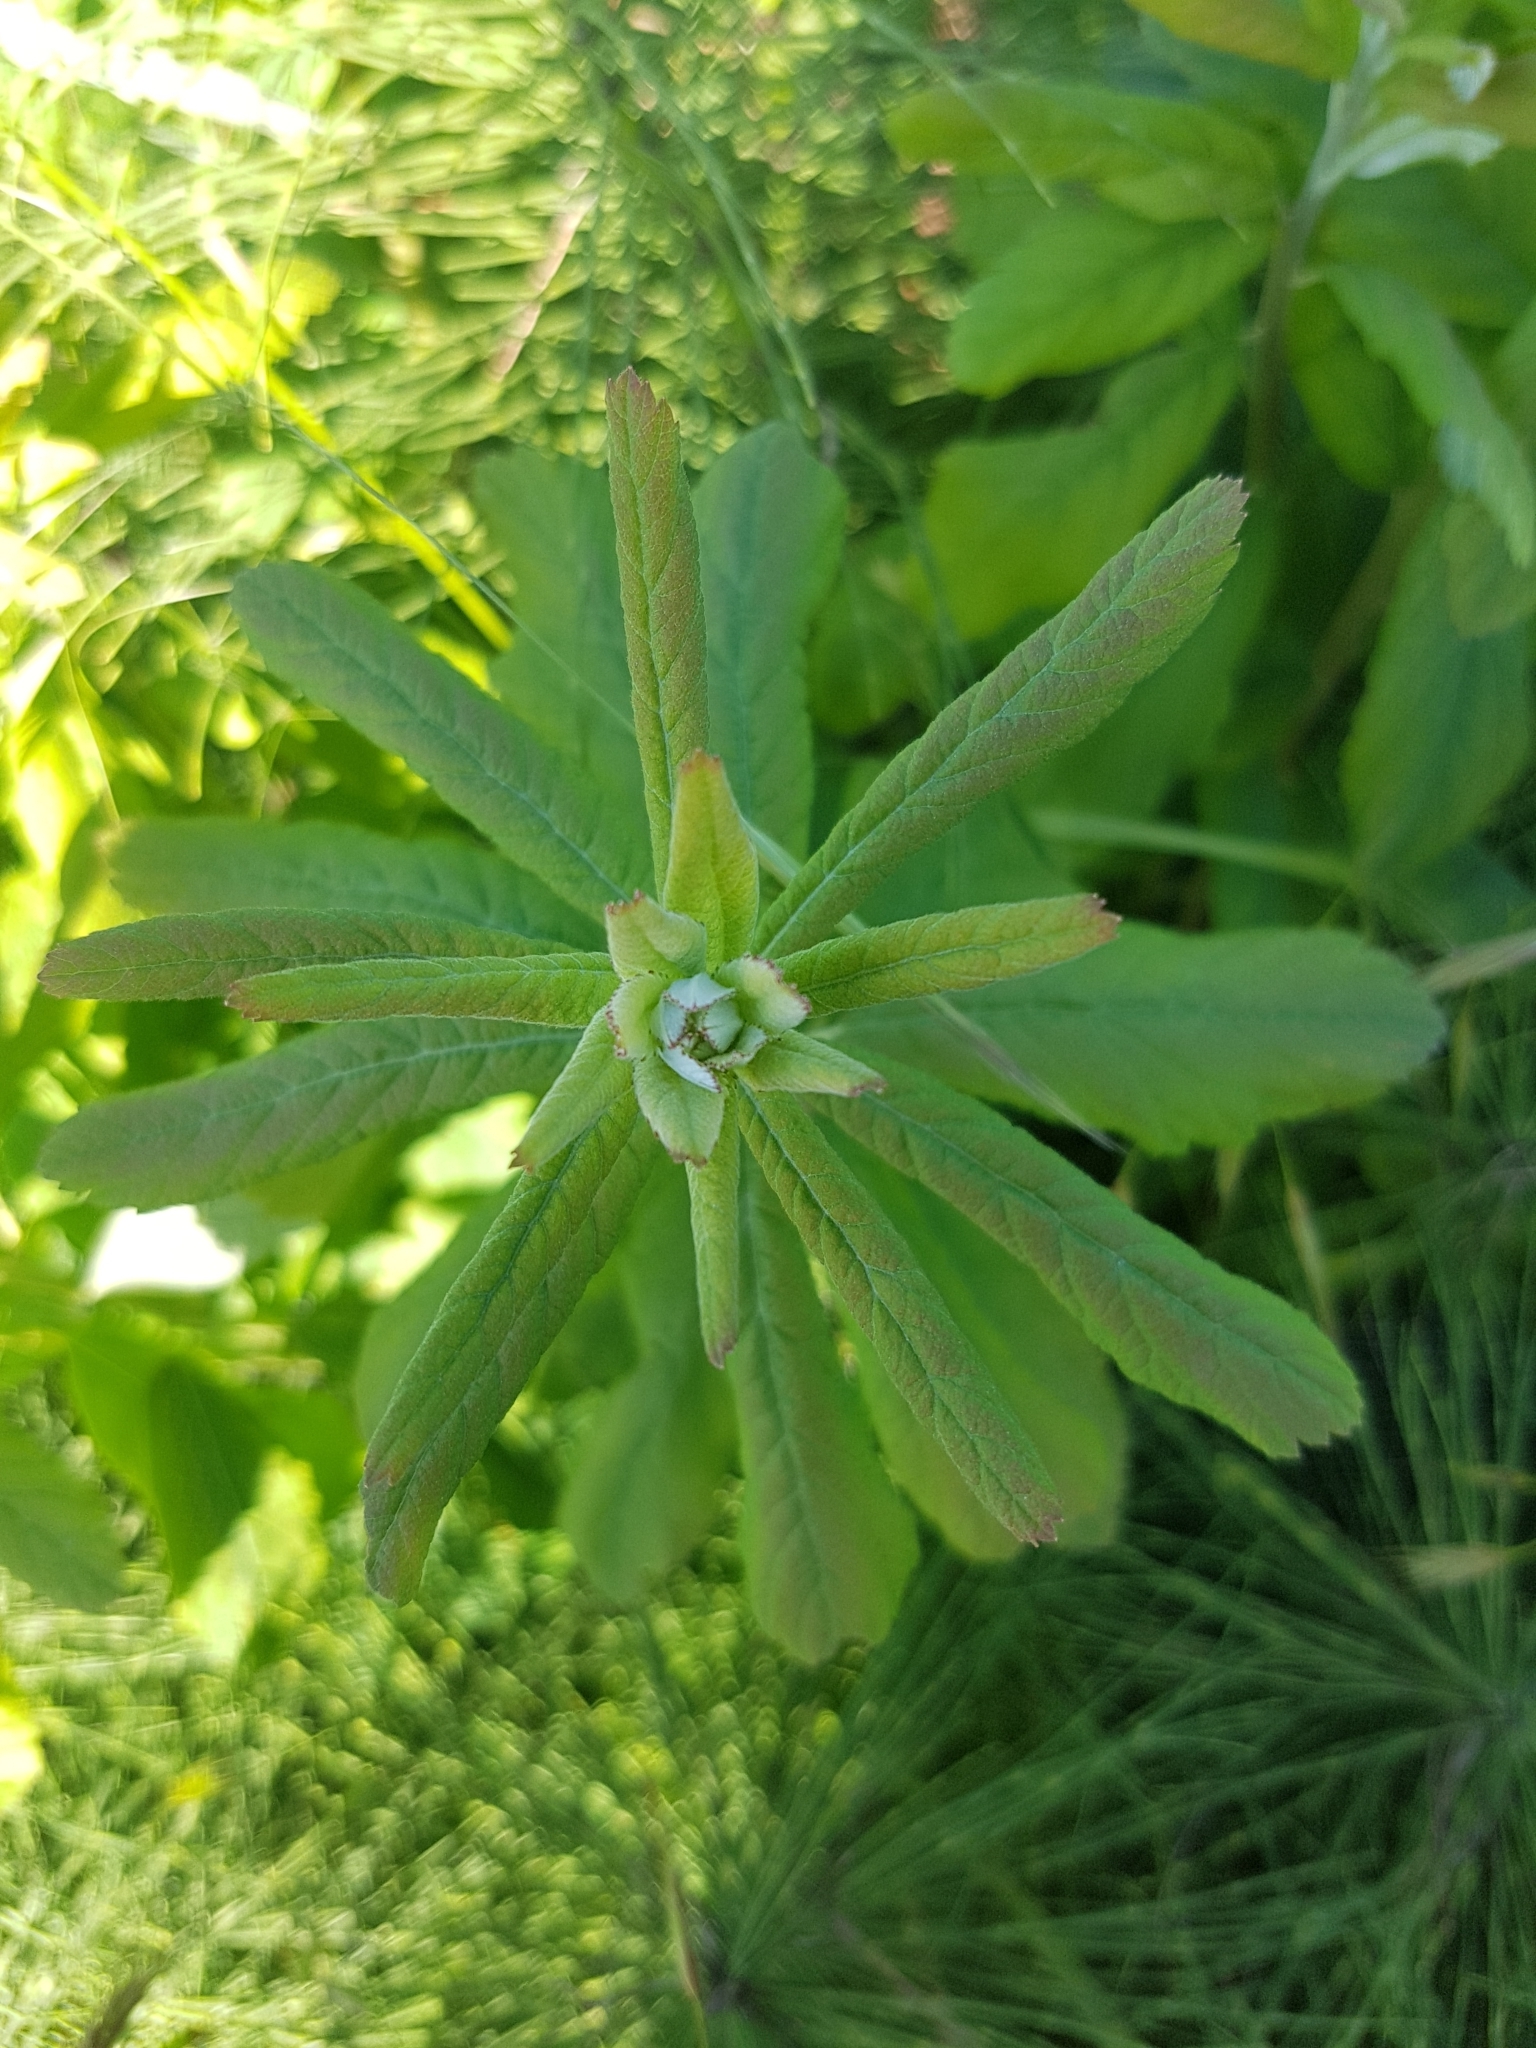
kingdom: Plantae
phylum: Tracheophyta
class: Magnoliopsida
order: Rosales
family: Rosaceae
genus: Spiraea
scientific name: Spiraea douglasii
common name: Steeplebush
